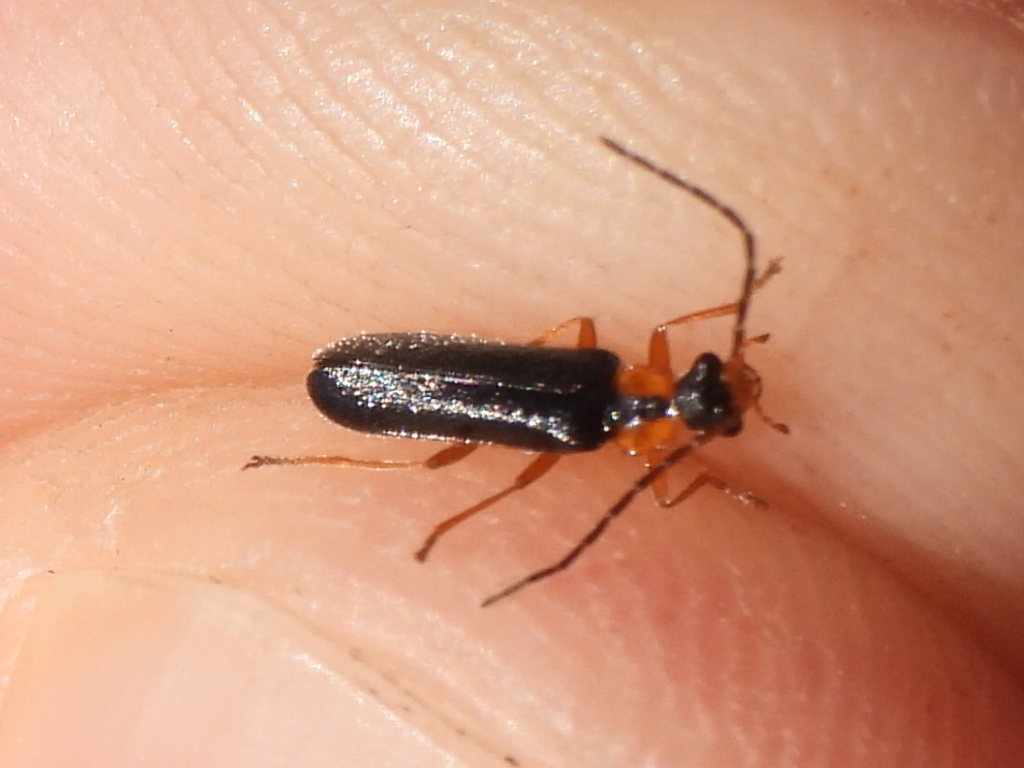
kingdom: Animalia
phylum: Arthropoda
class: Insecta
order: Coleoptera
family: Cantharidae
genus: Rhagonycha
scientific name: Rhagonycha lineola
